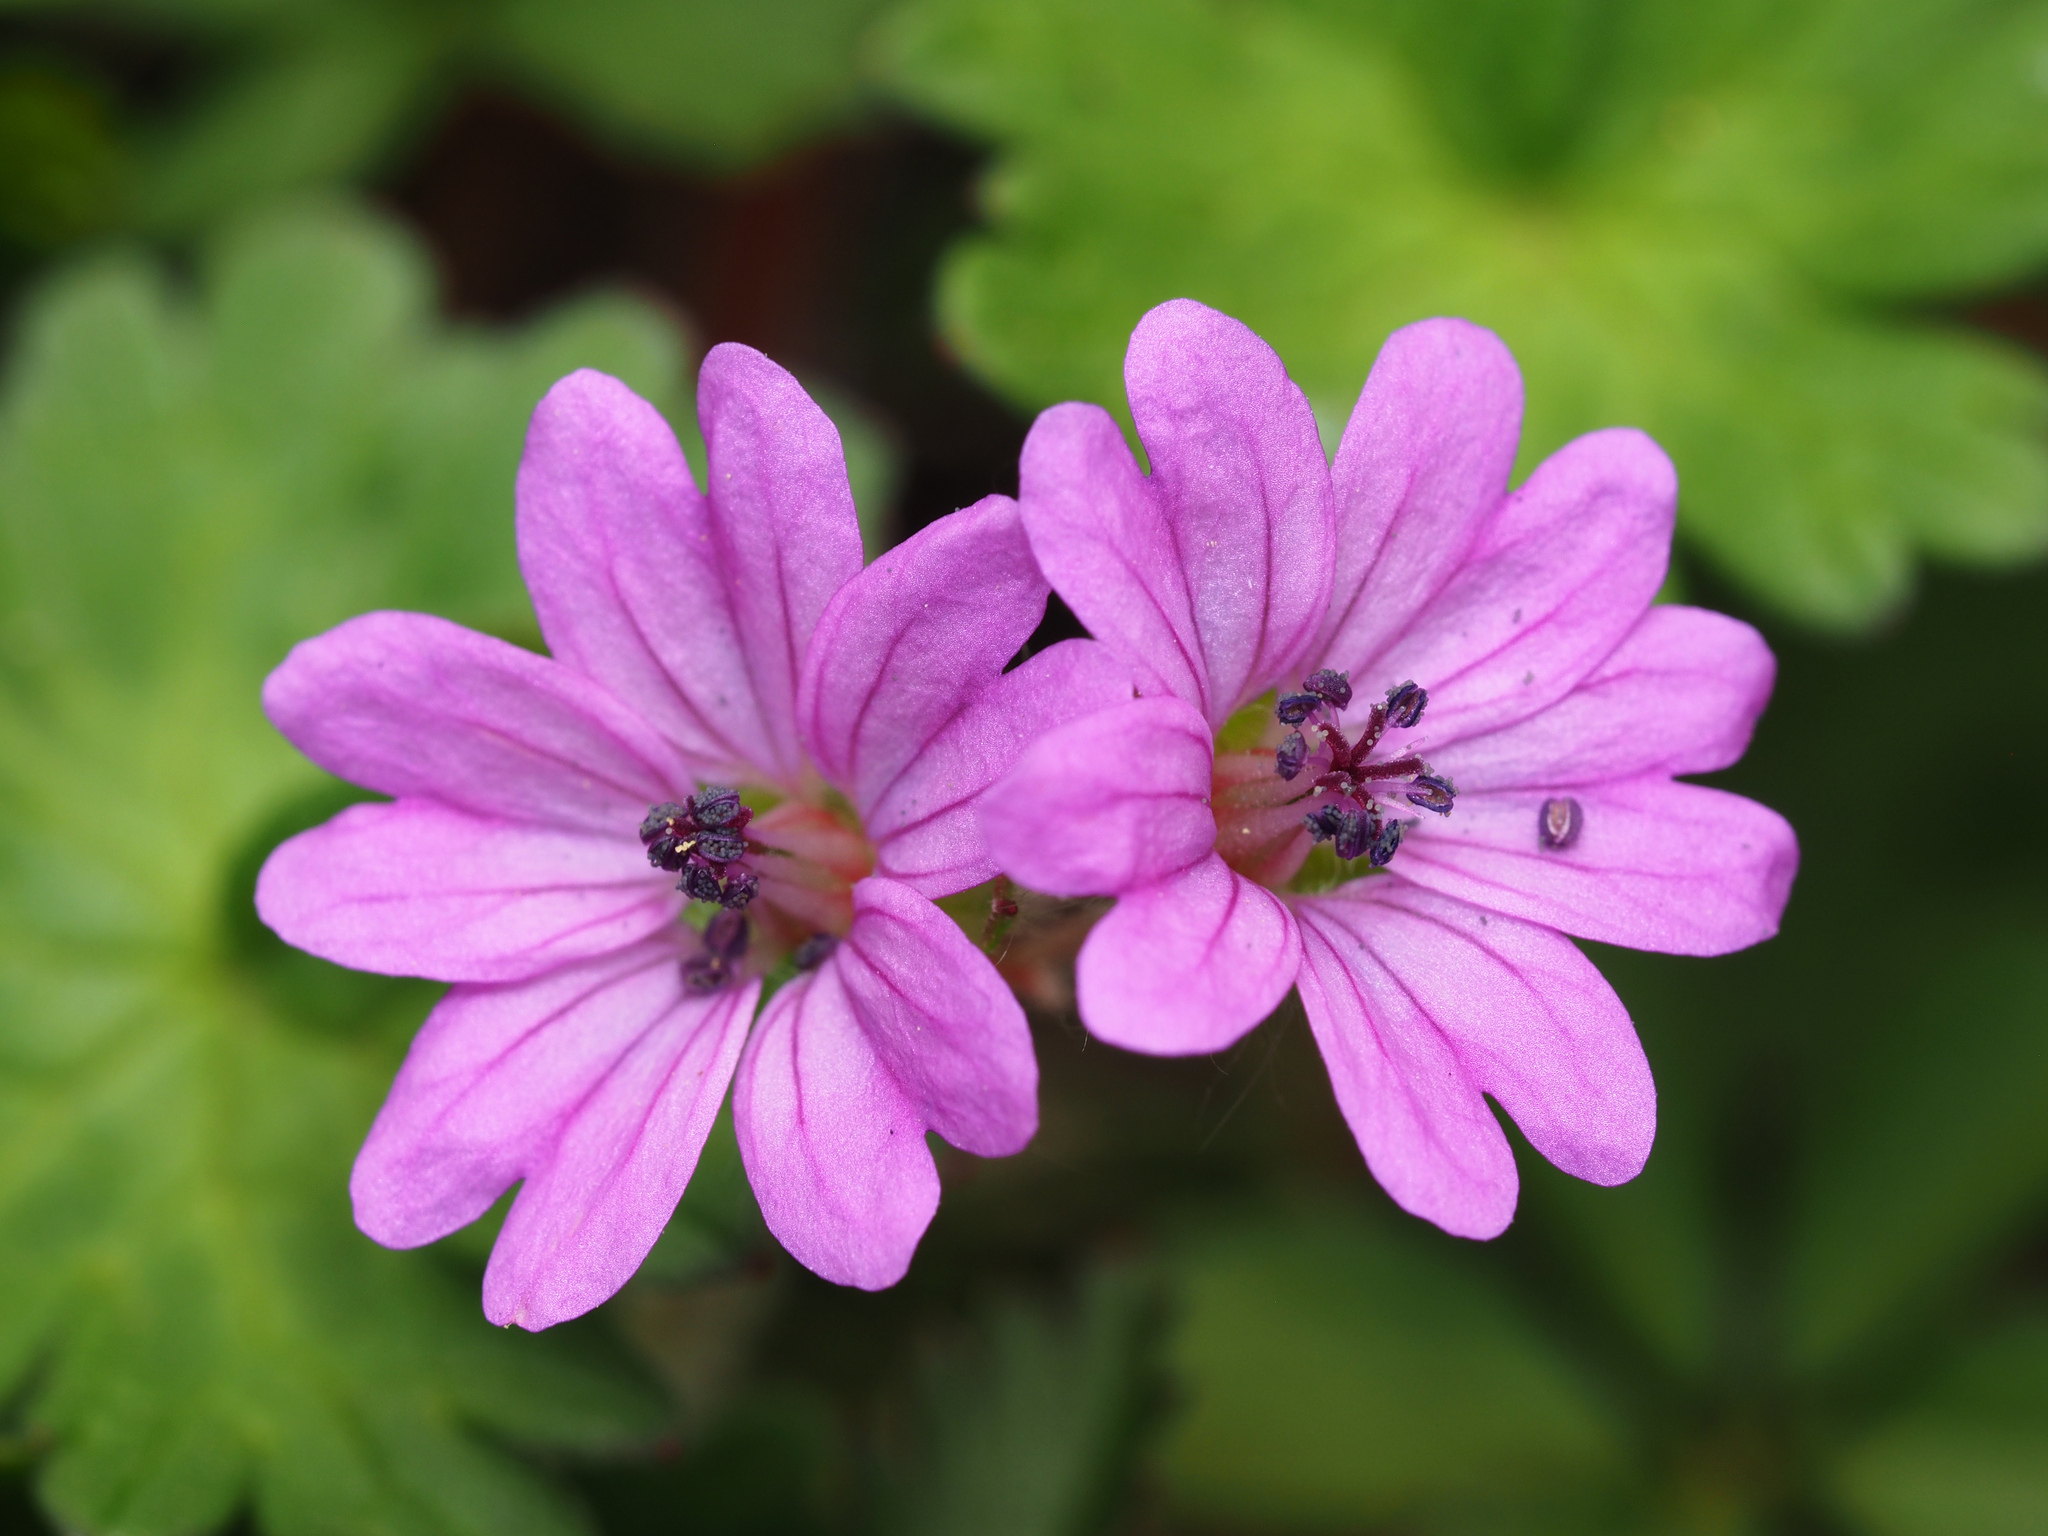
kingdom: Plantae
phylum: Tracheophyta
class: Magnoliopsida
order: Geraniales
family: Geraniaceae
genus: Geranium
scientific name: Geranium molle
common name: Dove's-foot crane's-bill
